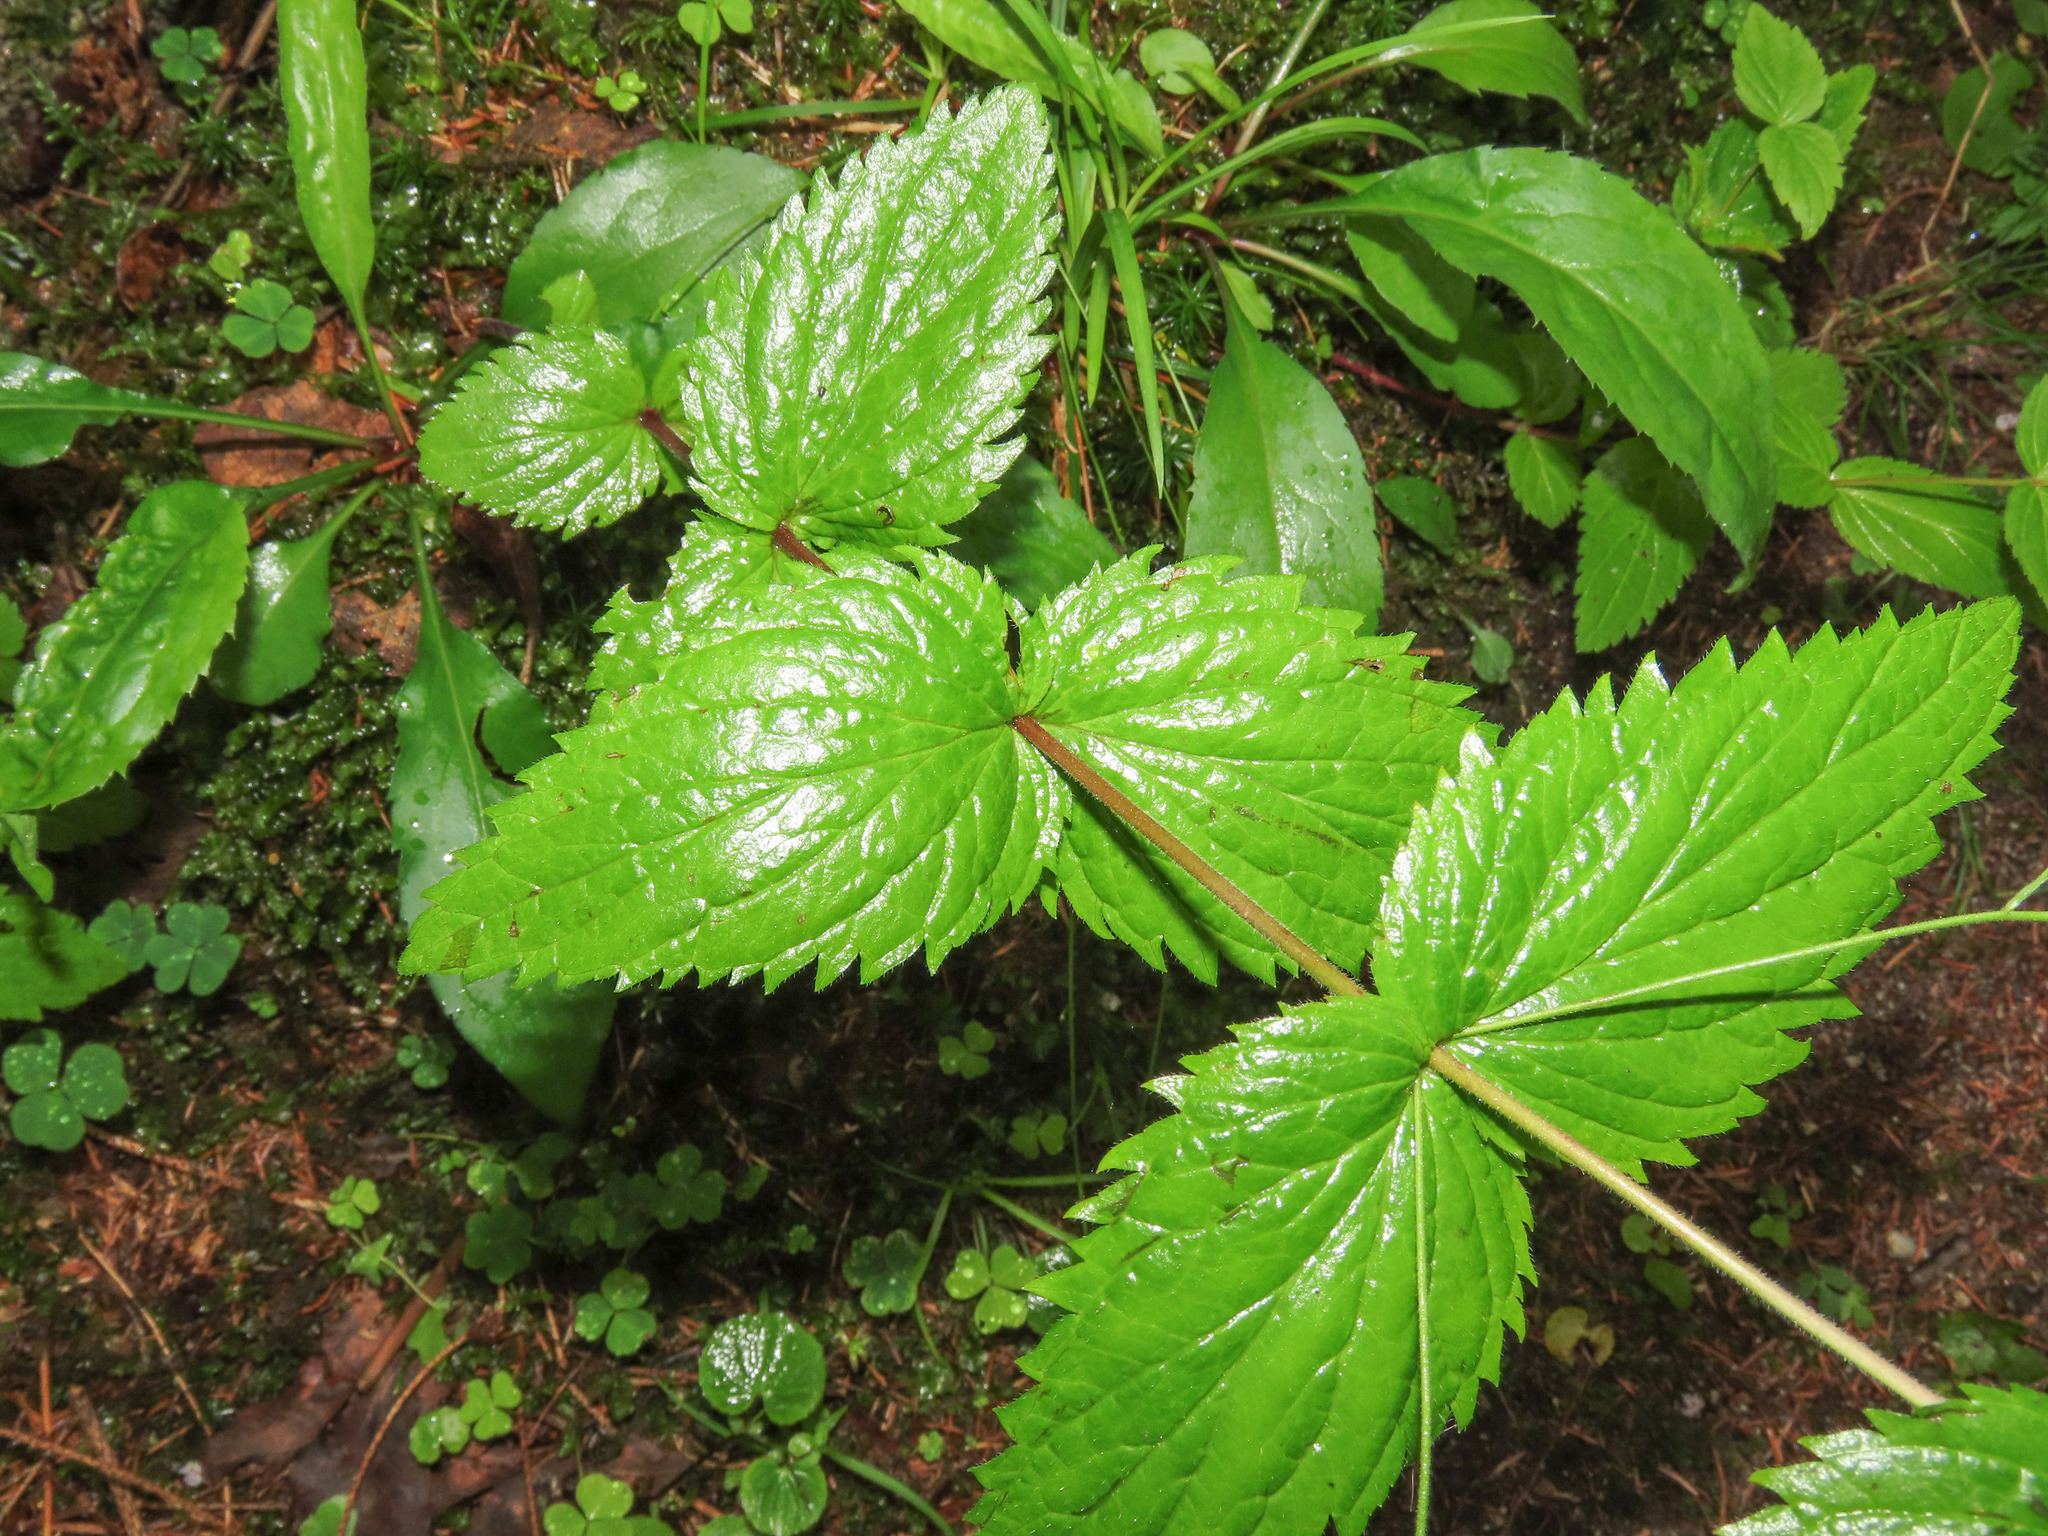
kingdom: Plantae
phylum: Tracheophyta
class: Magnoliopsida
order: Lamiales
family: Plantaginaceae
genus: Veronica
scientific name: Veronica urticifolia
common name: Nettle-leaf speedwell
